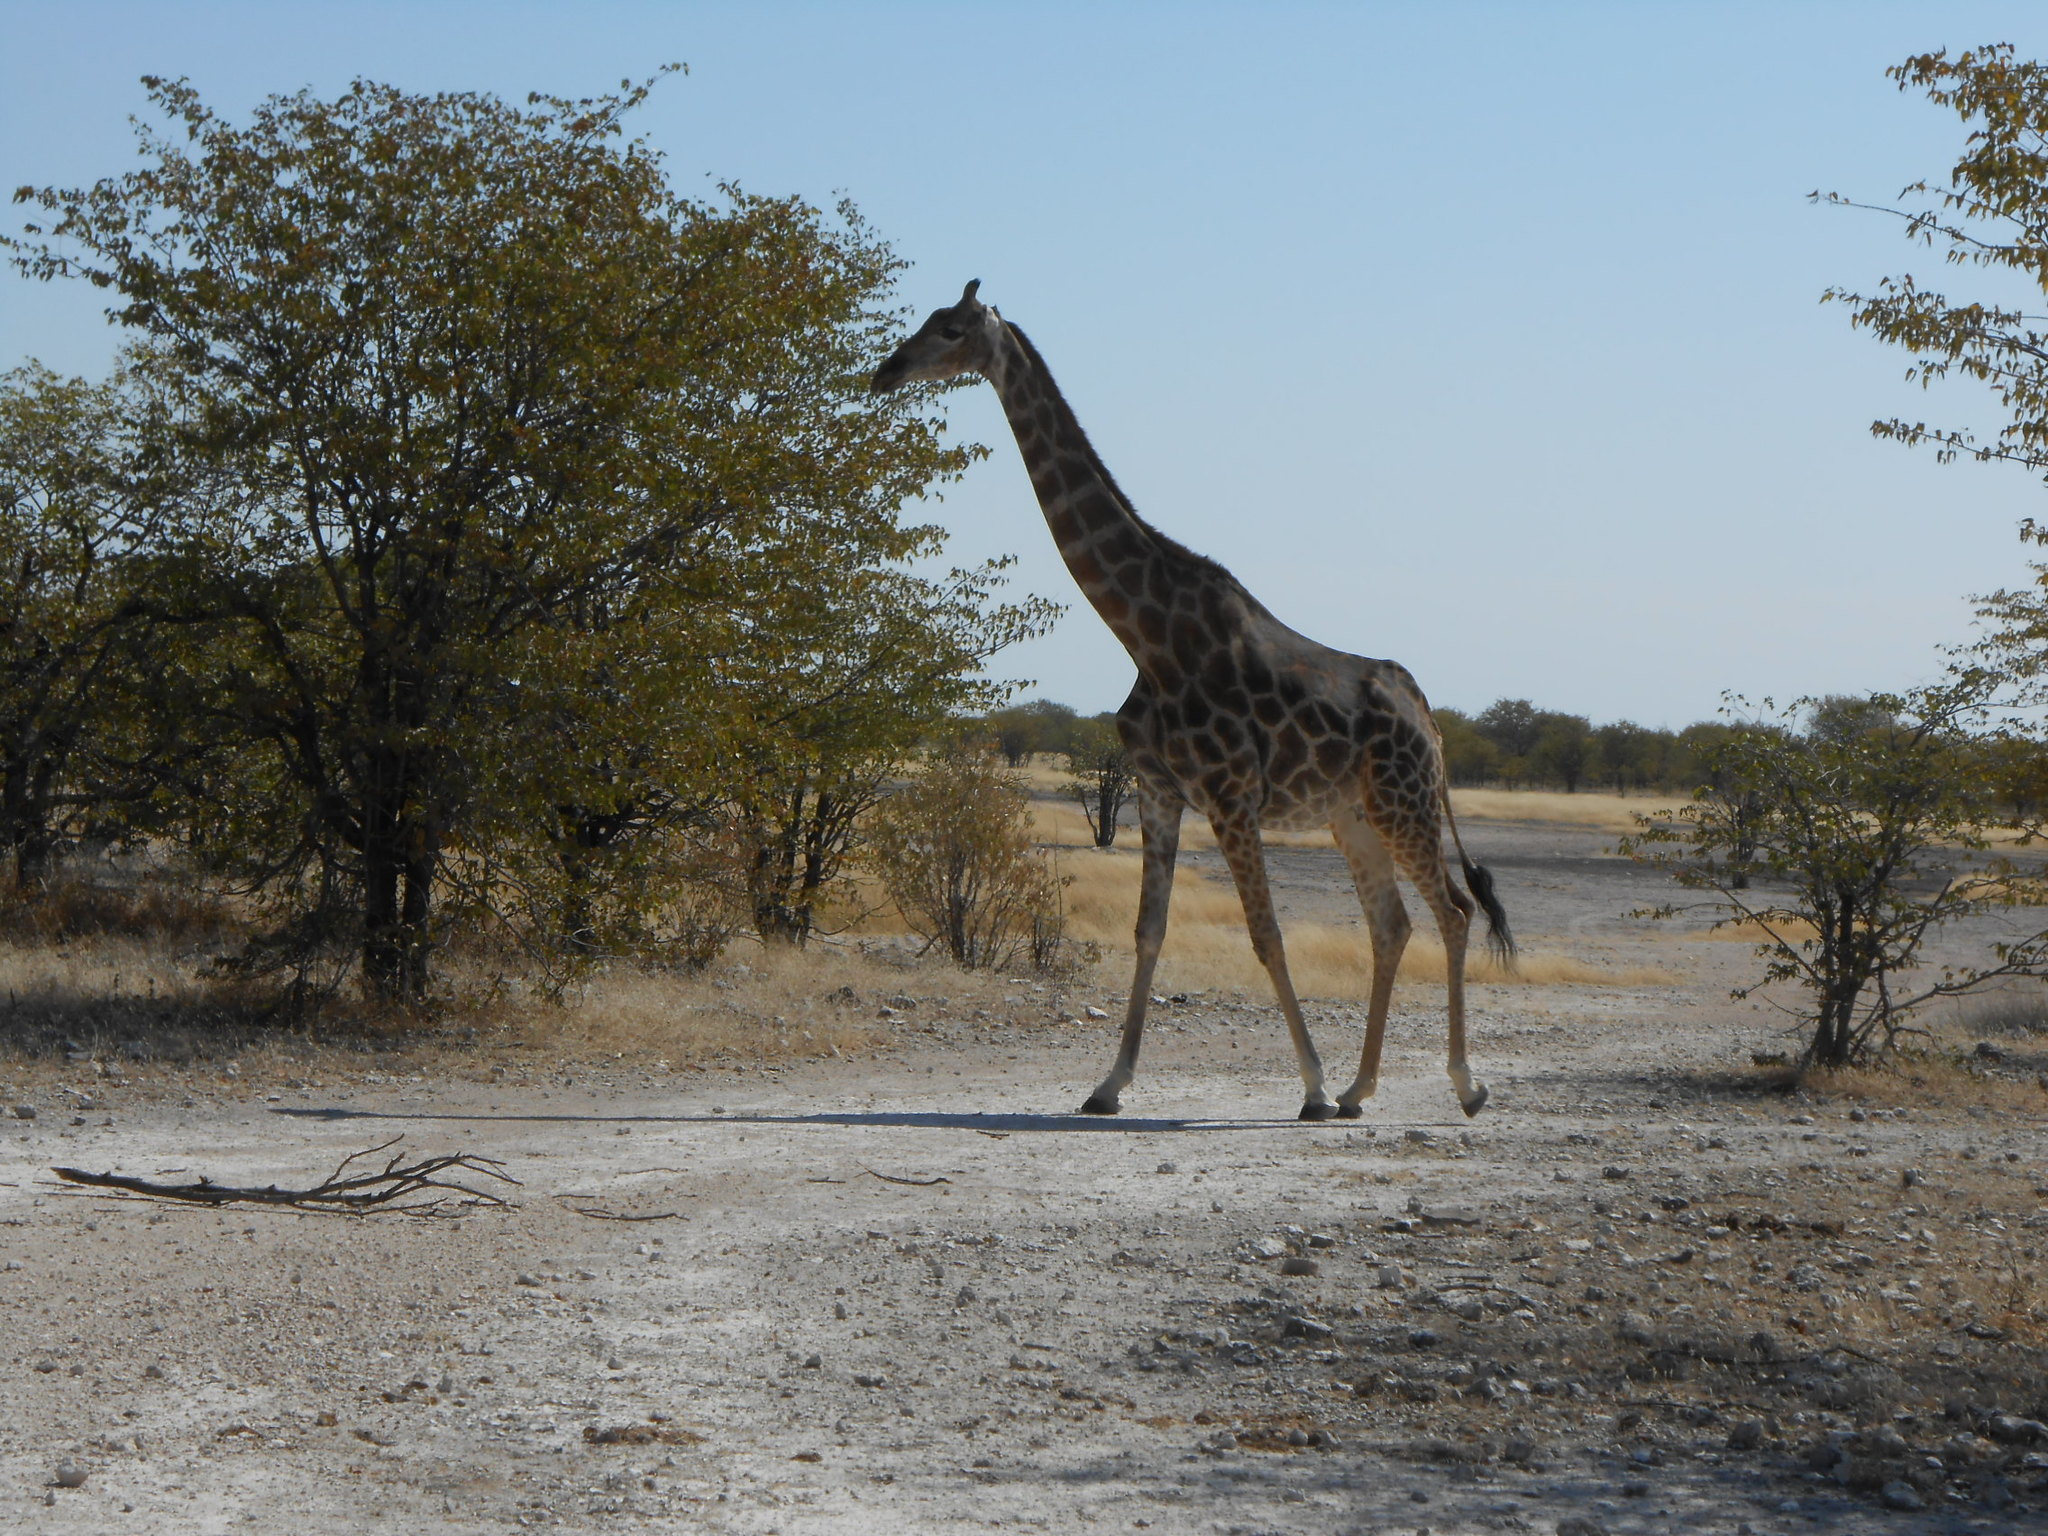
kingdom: Animalia
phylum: Chordata
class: Mammalia
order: Artiodactyla
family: Giraffidae
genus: Giraffa
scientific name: Giraffa giraffa
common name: Southern giraffe
